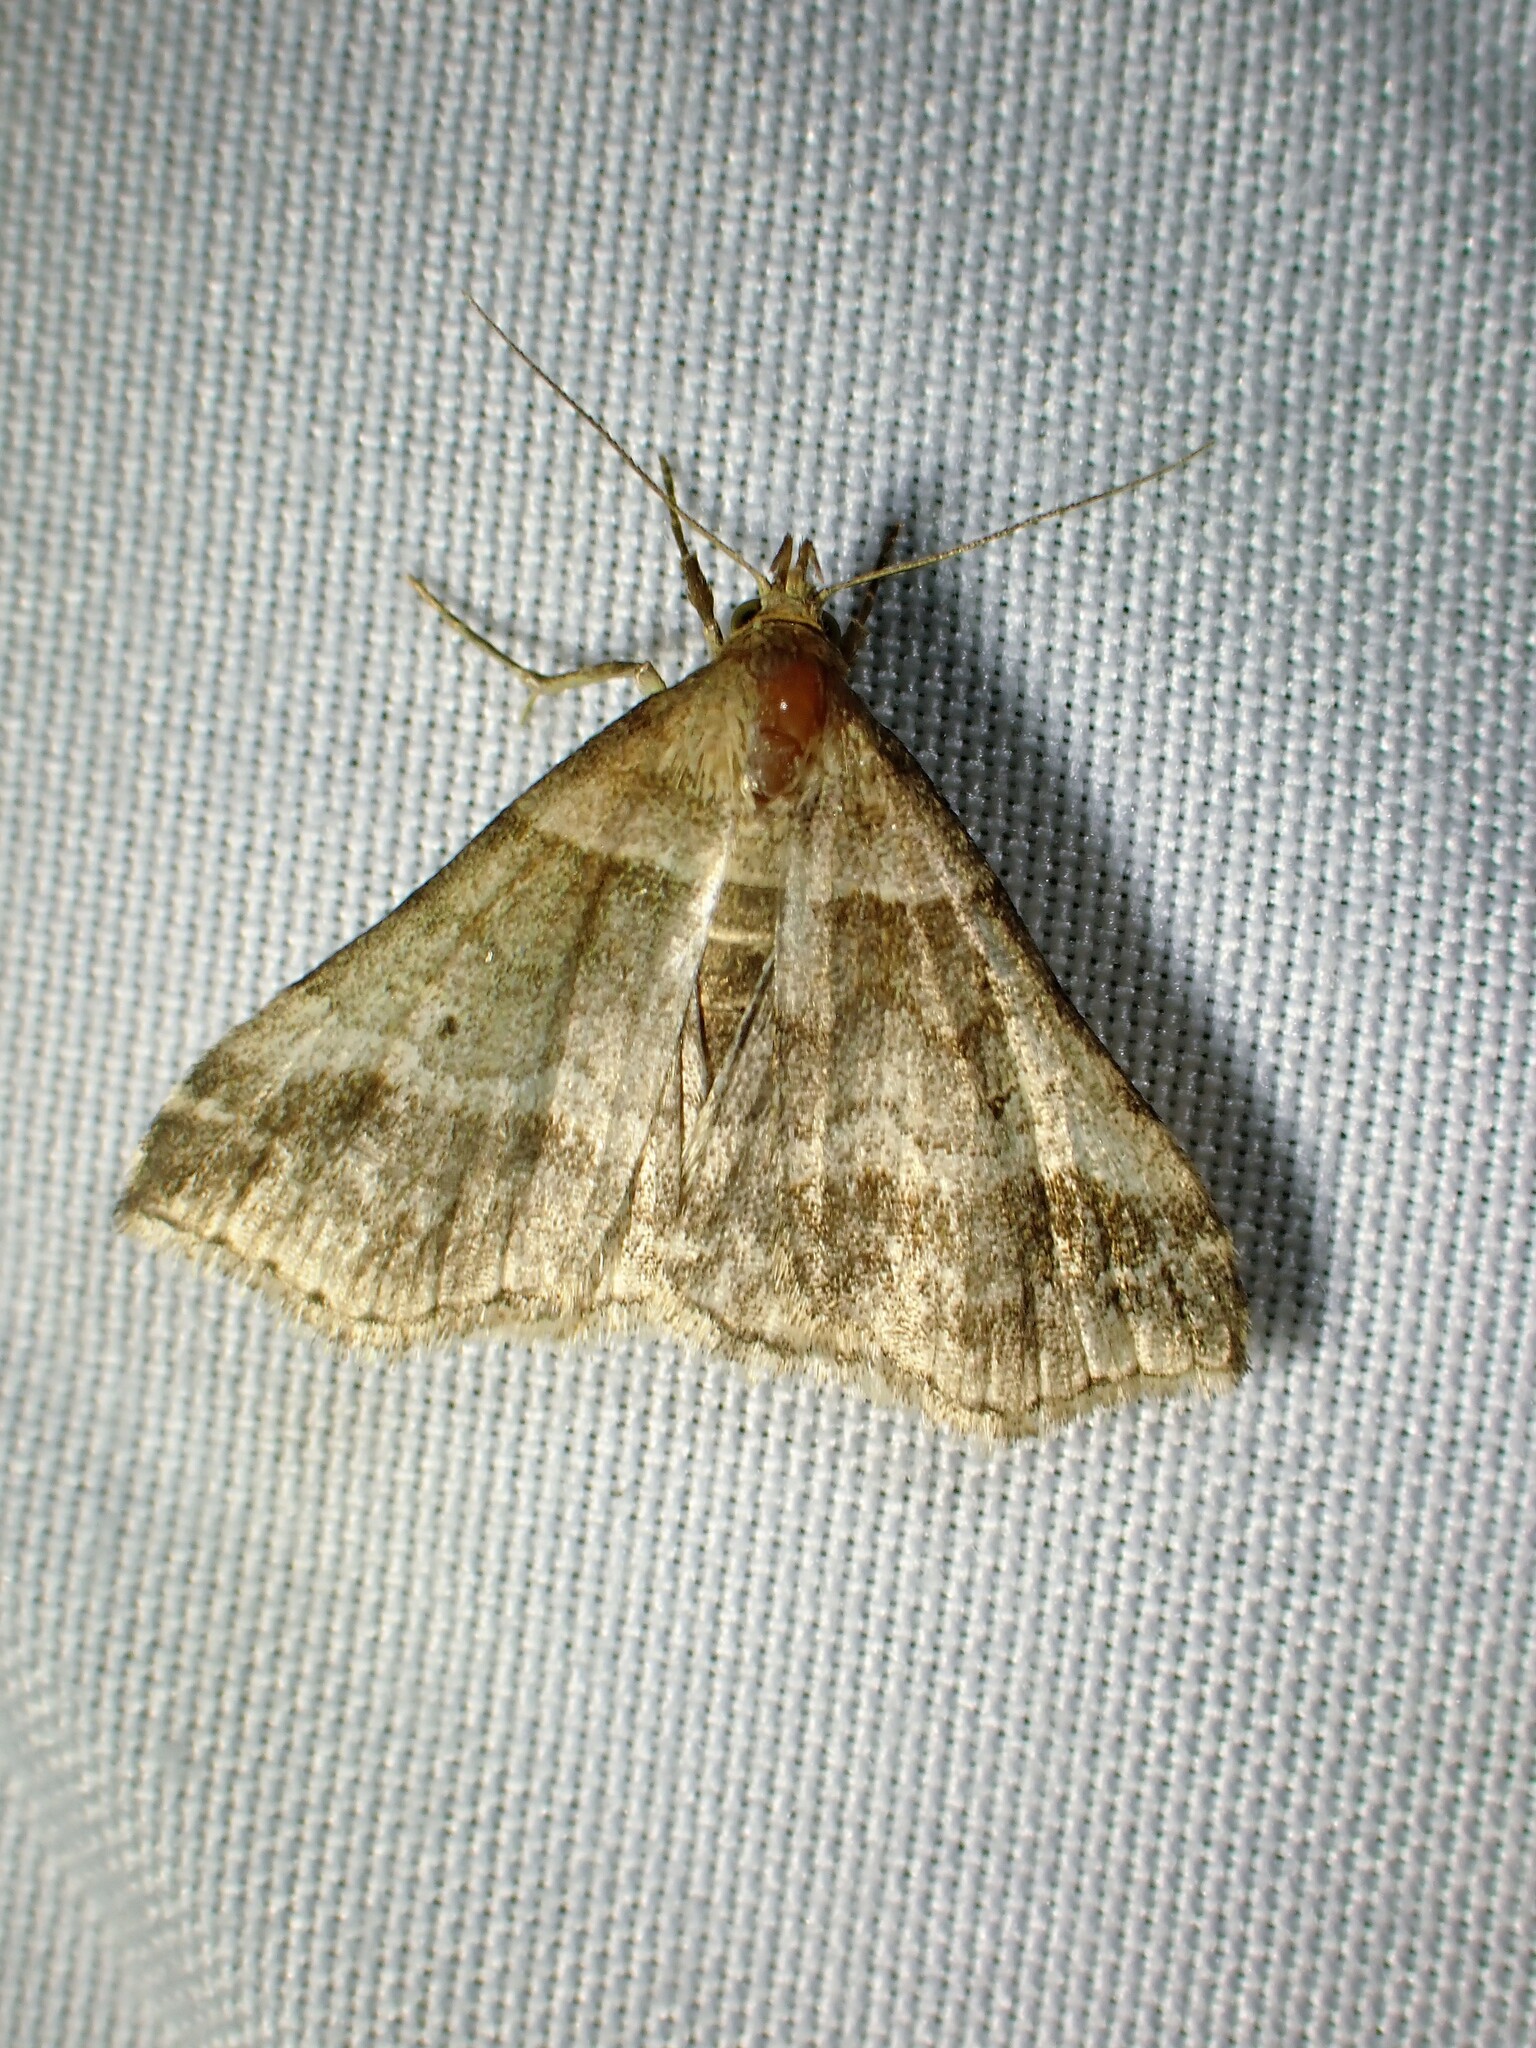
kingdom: Animalia
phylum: Arthropoda
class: Insecta
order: Lepidoptera
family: Erebidae
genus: Phaeolita
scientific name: Phaeolita pyramusalis
